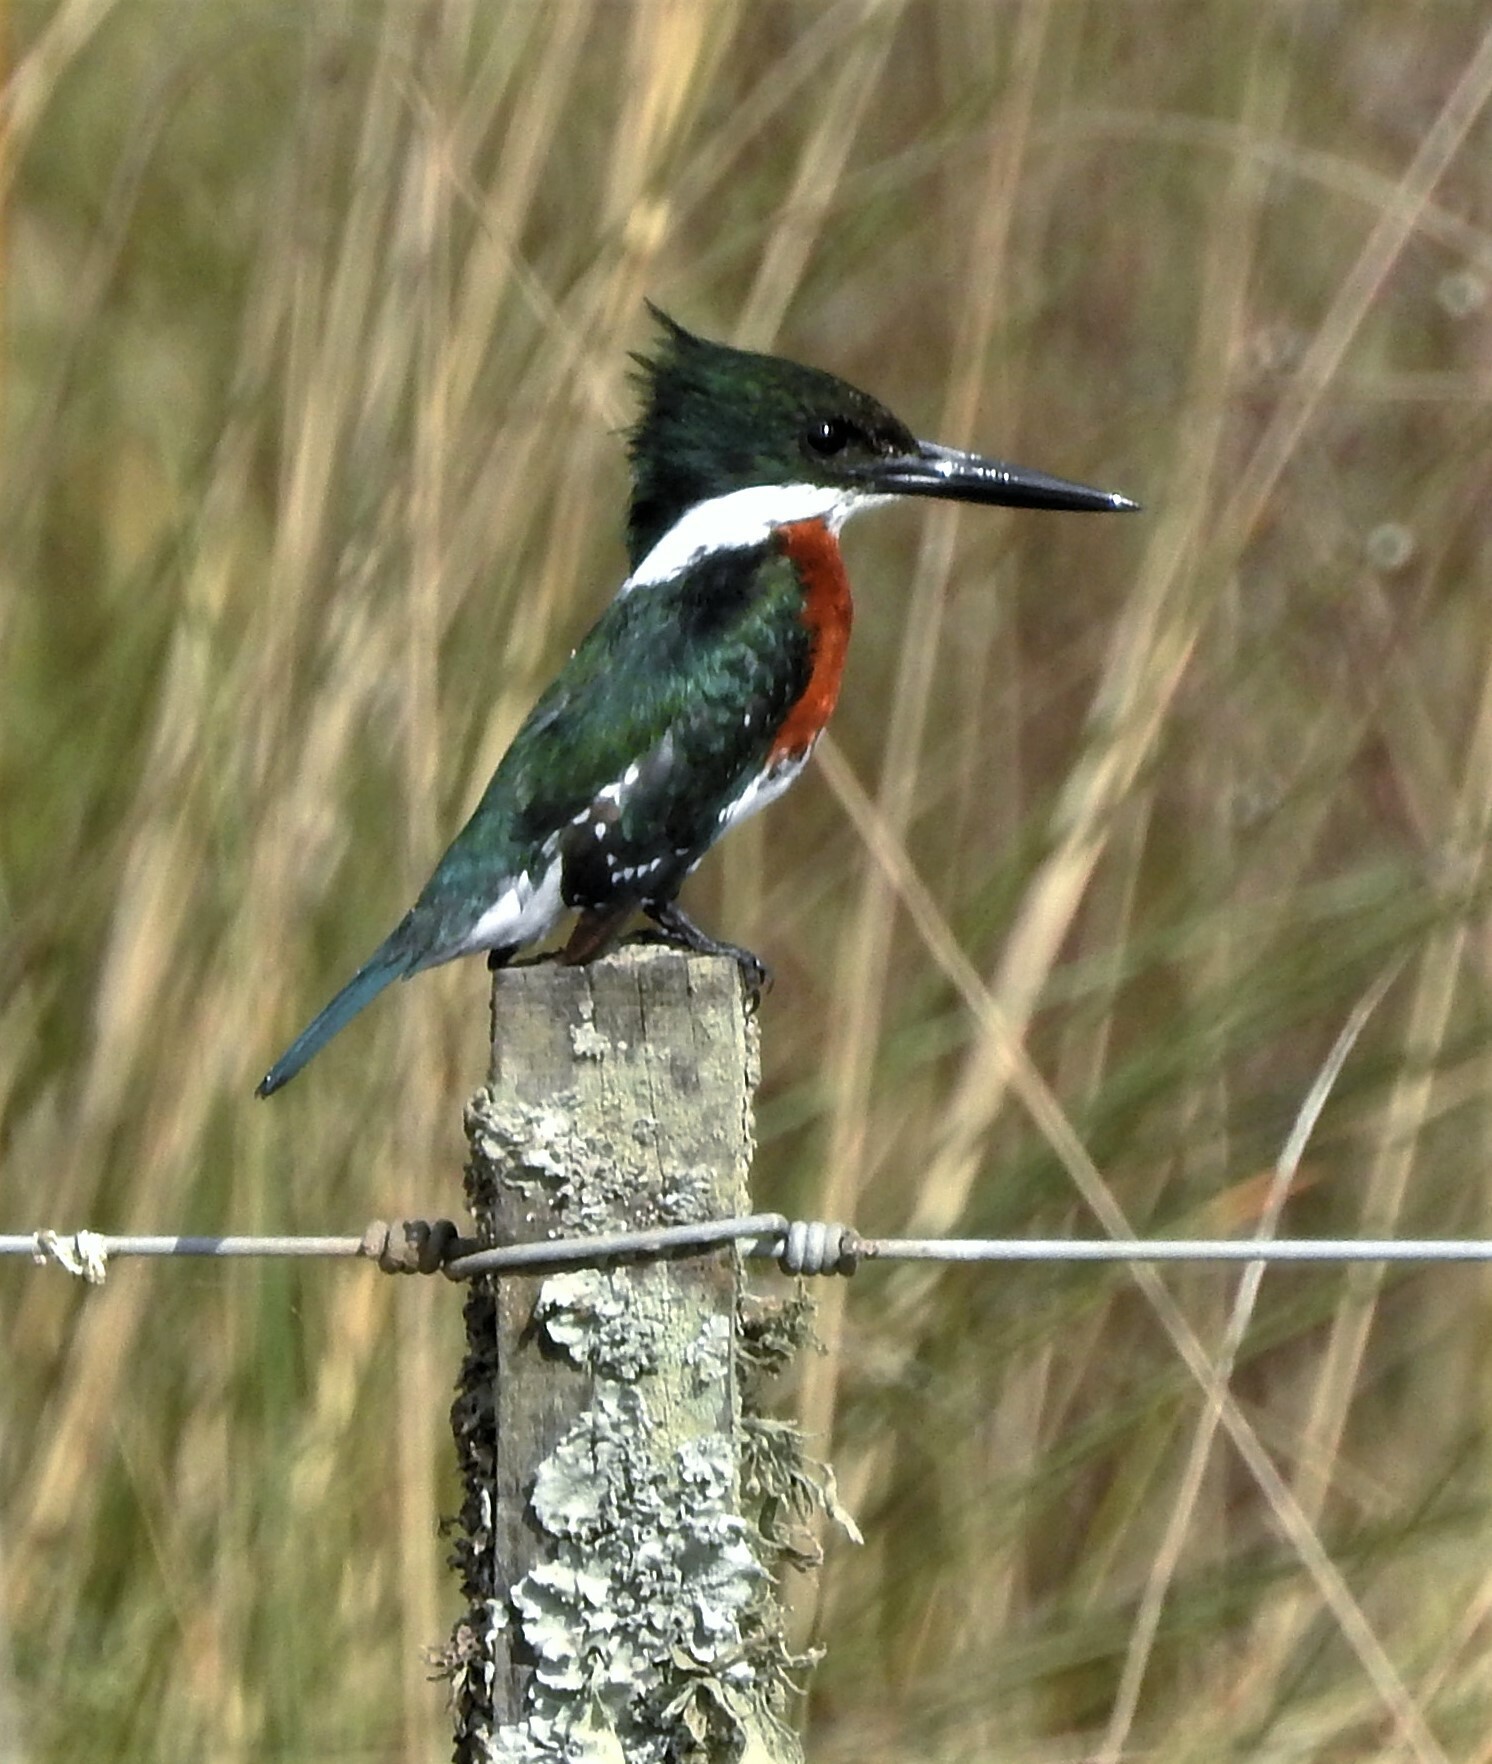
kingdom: Animalia
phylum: Chordata
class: Aves
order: Coraciiformes
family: Alcedinidae
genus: Chloroceryle
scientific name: Chloroceryle americana
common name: Green kingfisher
